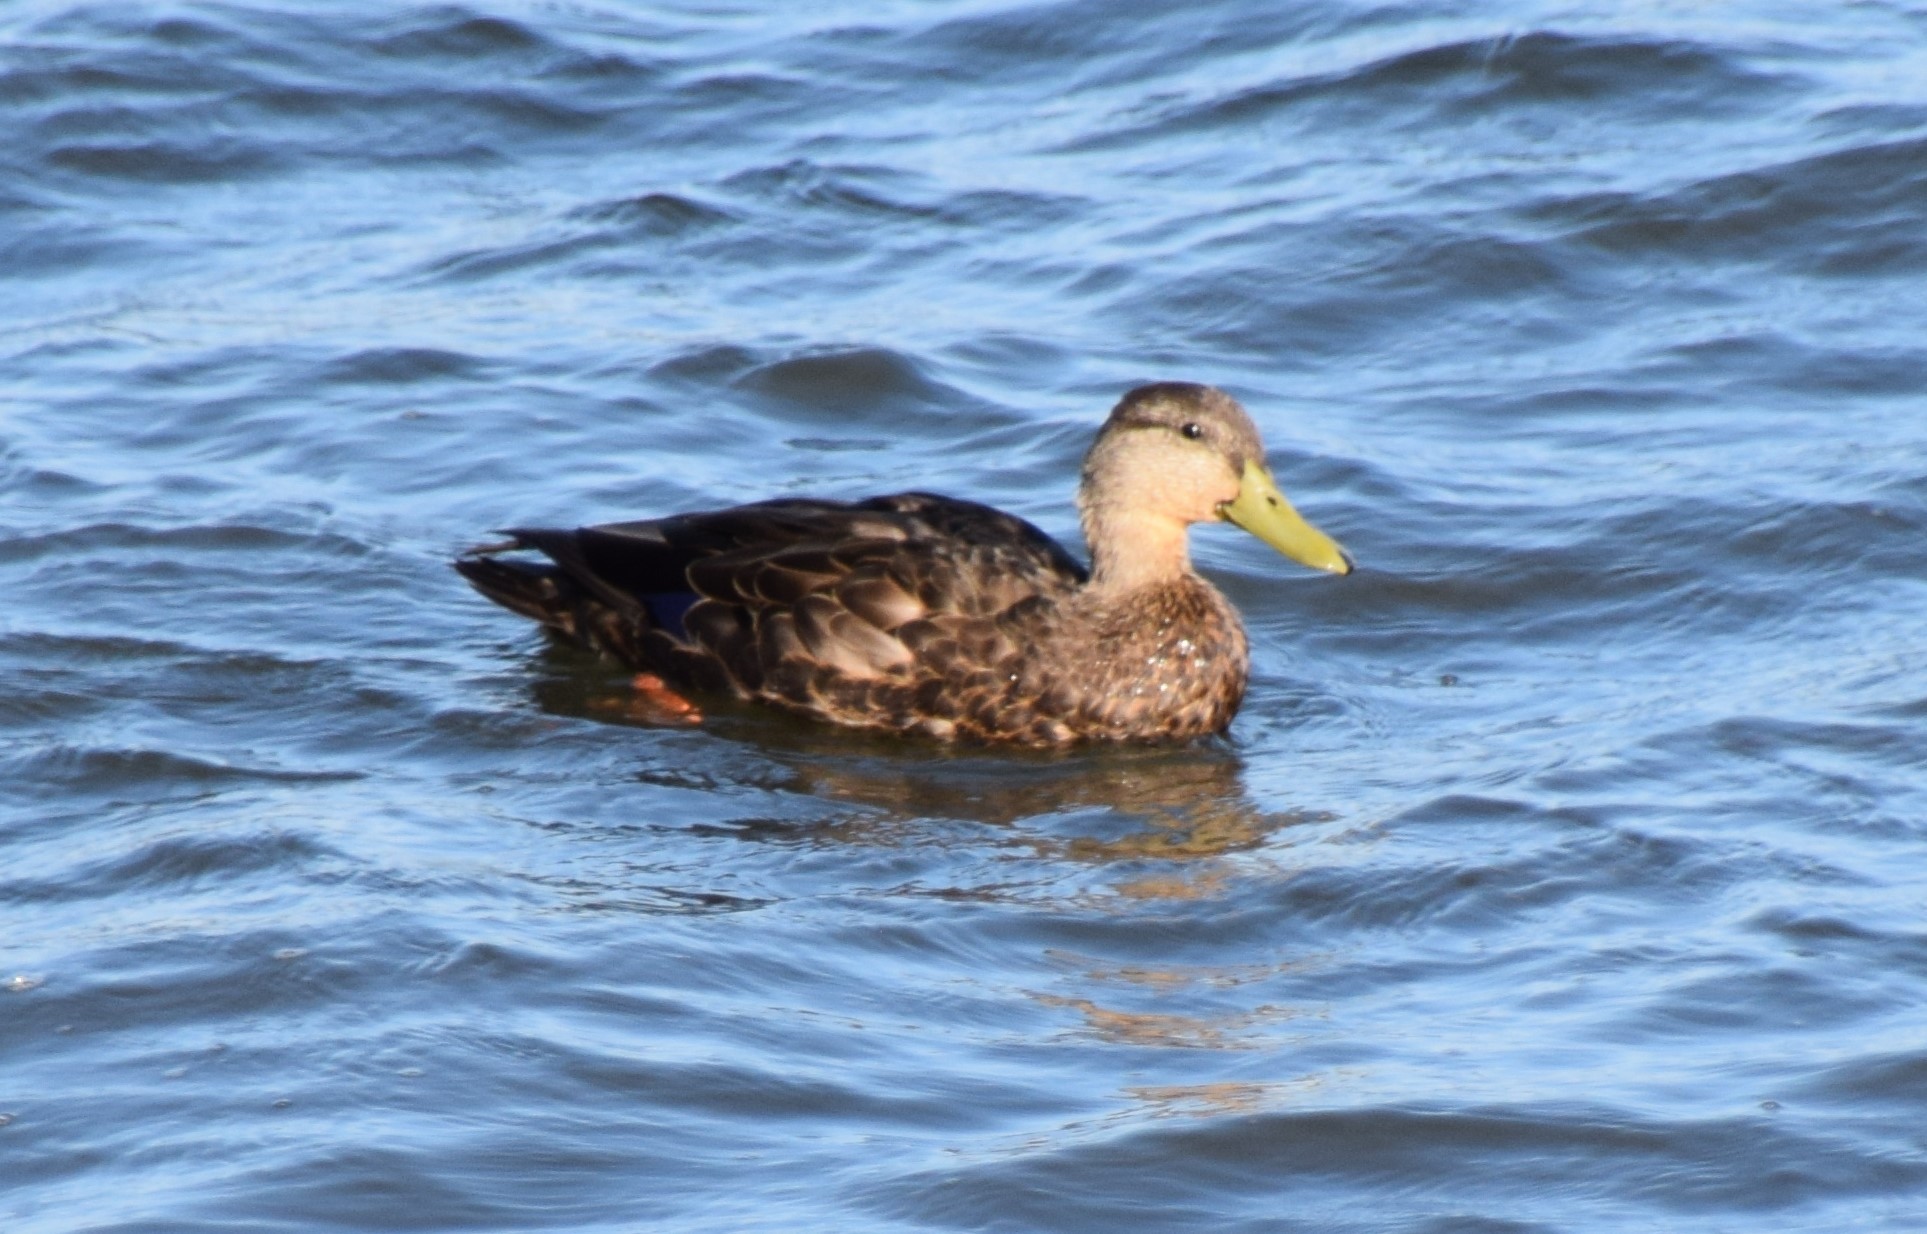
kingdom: Animalia
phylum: Chordata
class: Aves
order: Anseriformes
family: Anatidae
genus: Anas
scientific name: Anas rubripes
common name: American black duck
